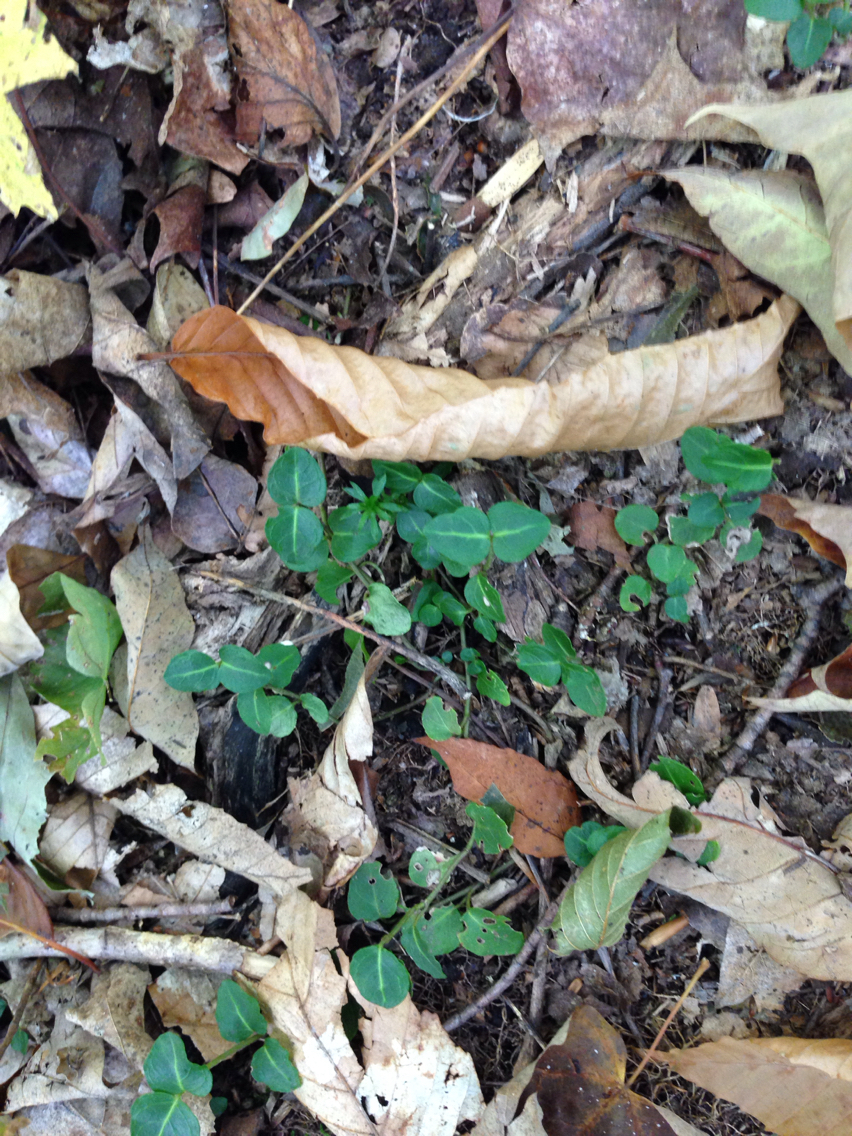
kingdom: Plantae
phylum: Tracheophyta
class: Magnoliopsida
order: Gentianales
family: Rubiaceae
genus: Mitchella
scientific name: Mitchella repens
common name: Partridge-berry
